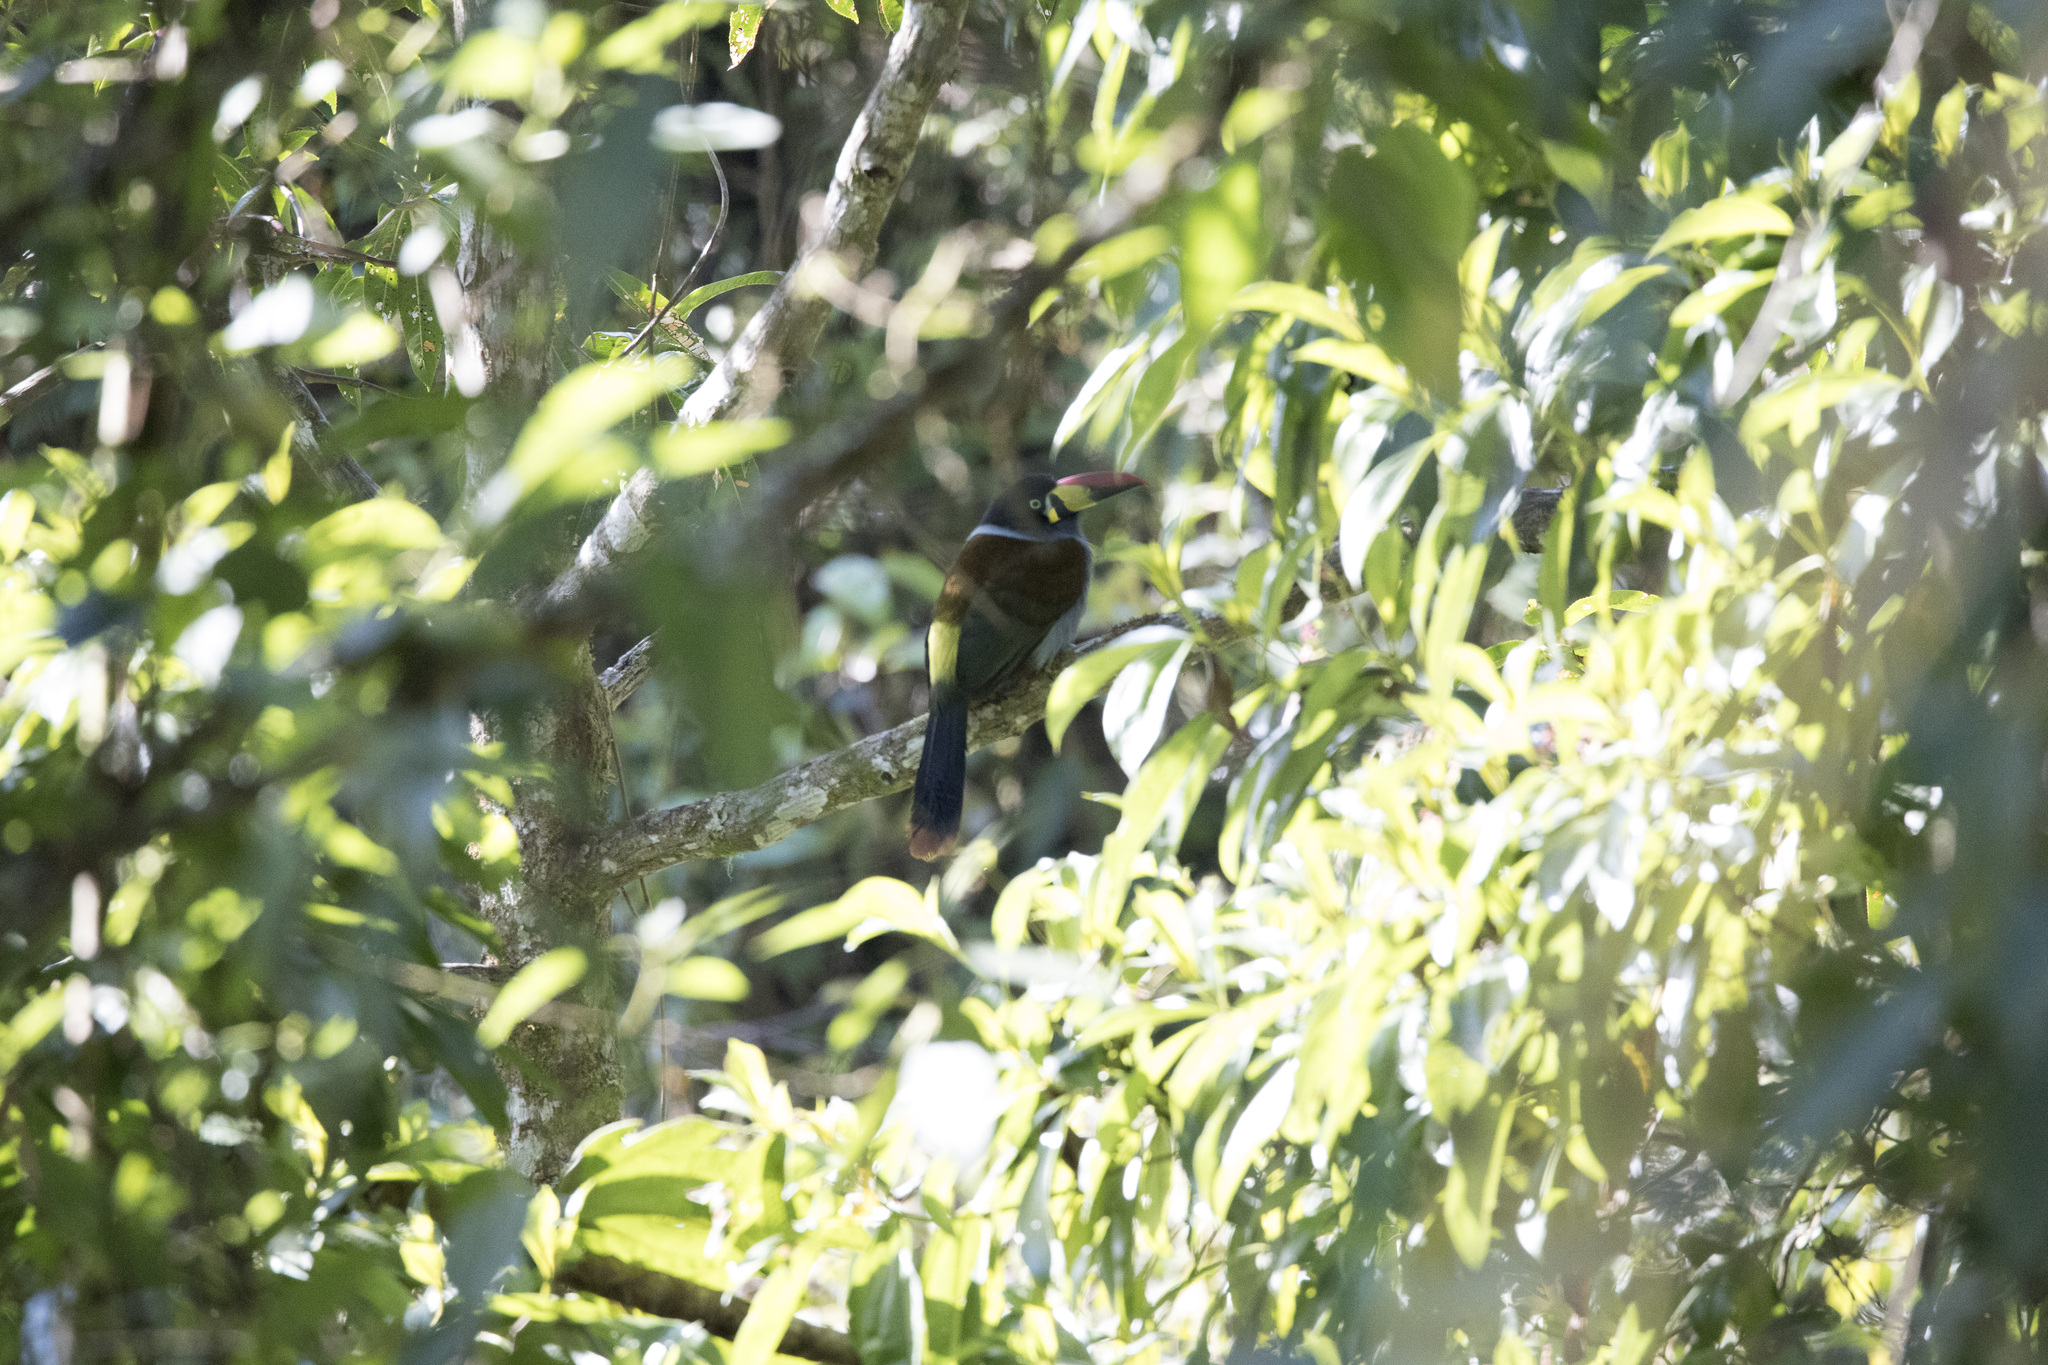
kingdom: Animalia
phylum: Chordata
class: Aves
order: Piciformes
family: Ramphastidae
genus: Andigena
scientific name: Andigena hypoglauca
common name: Grey-breasted mountain toucan
